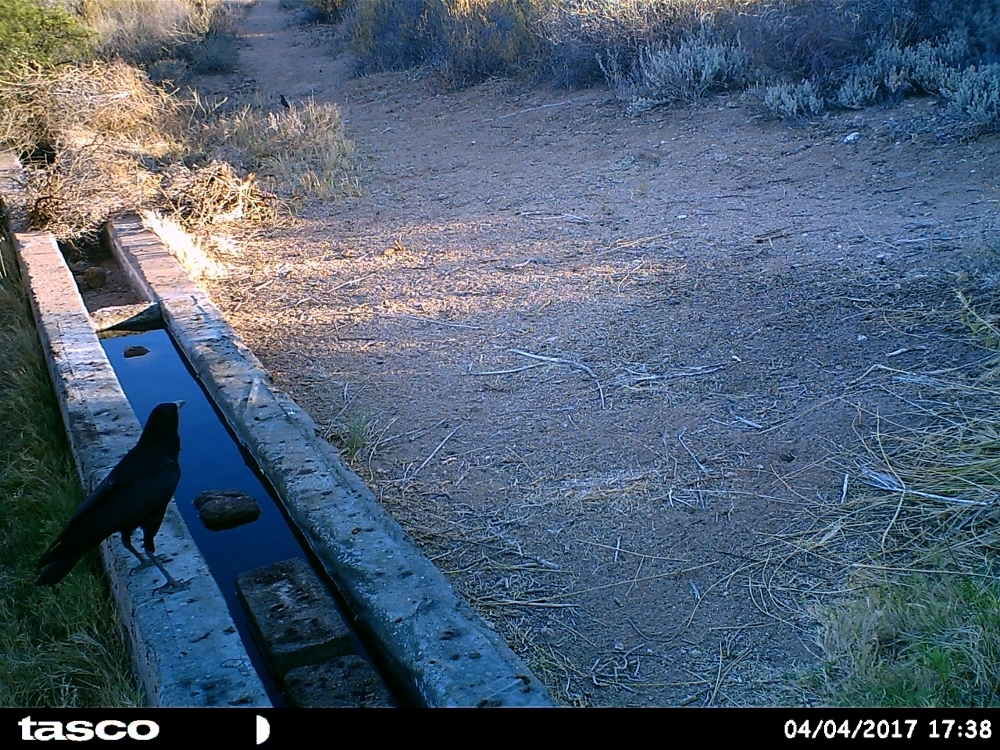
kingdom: Animalia
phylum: Chordata
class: Aves
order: Passeriformes
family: Corvidae
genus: Corvus
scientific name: Corvus capensis
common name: Cape crow
